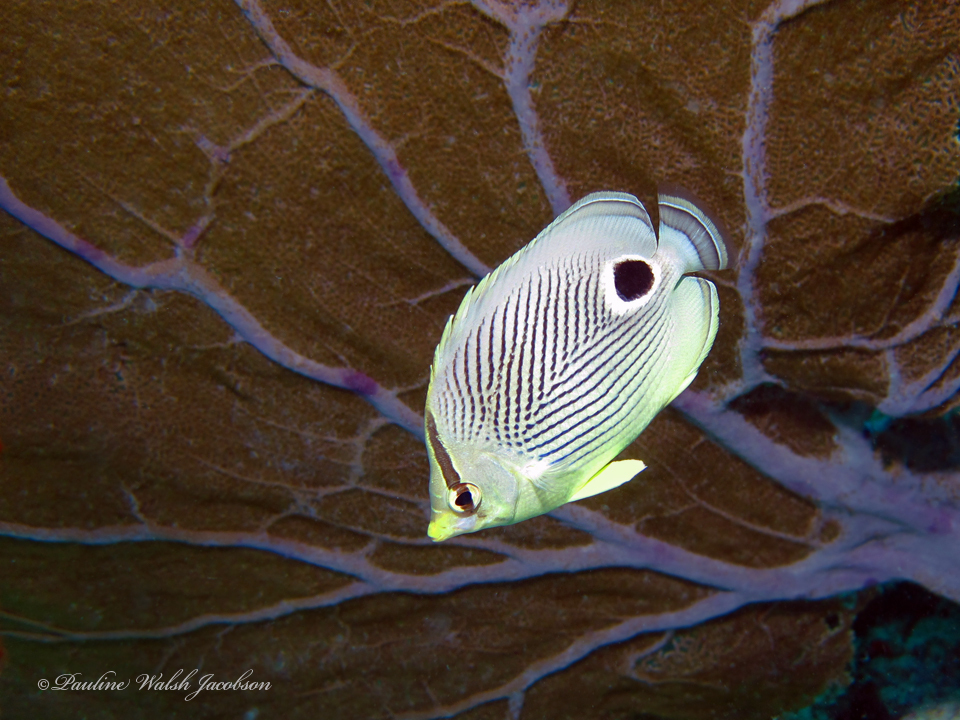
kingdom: Animalia
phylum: Chordata
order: Perciformes
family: Chaetodontidae
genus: Chaetodon
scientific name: Chaetodon capistratus
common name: Kete
